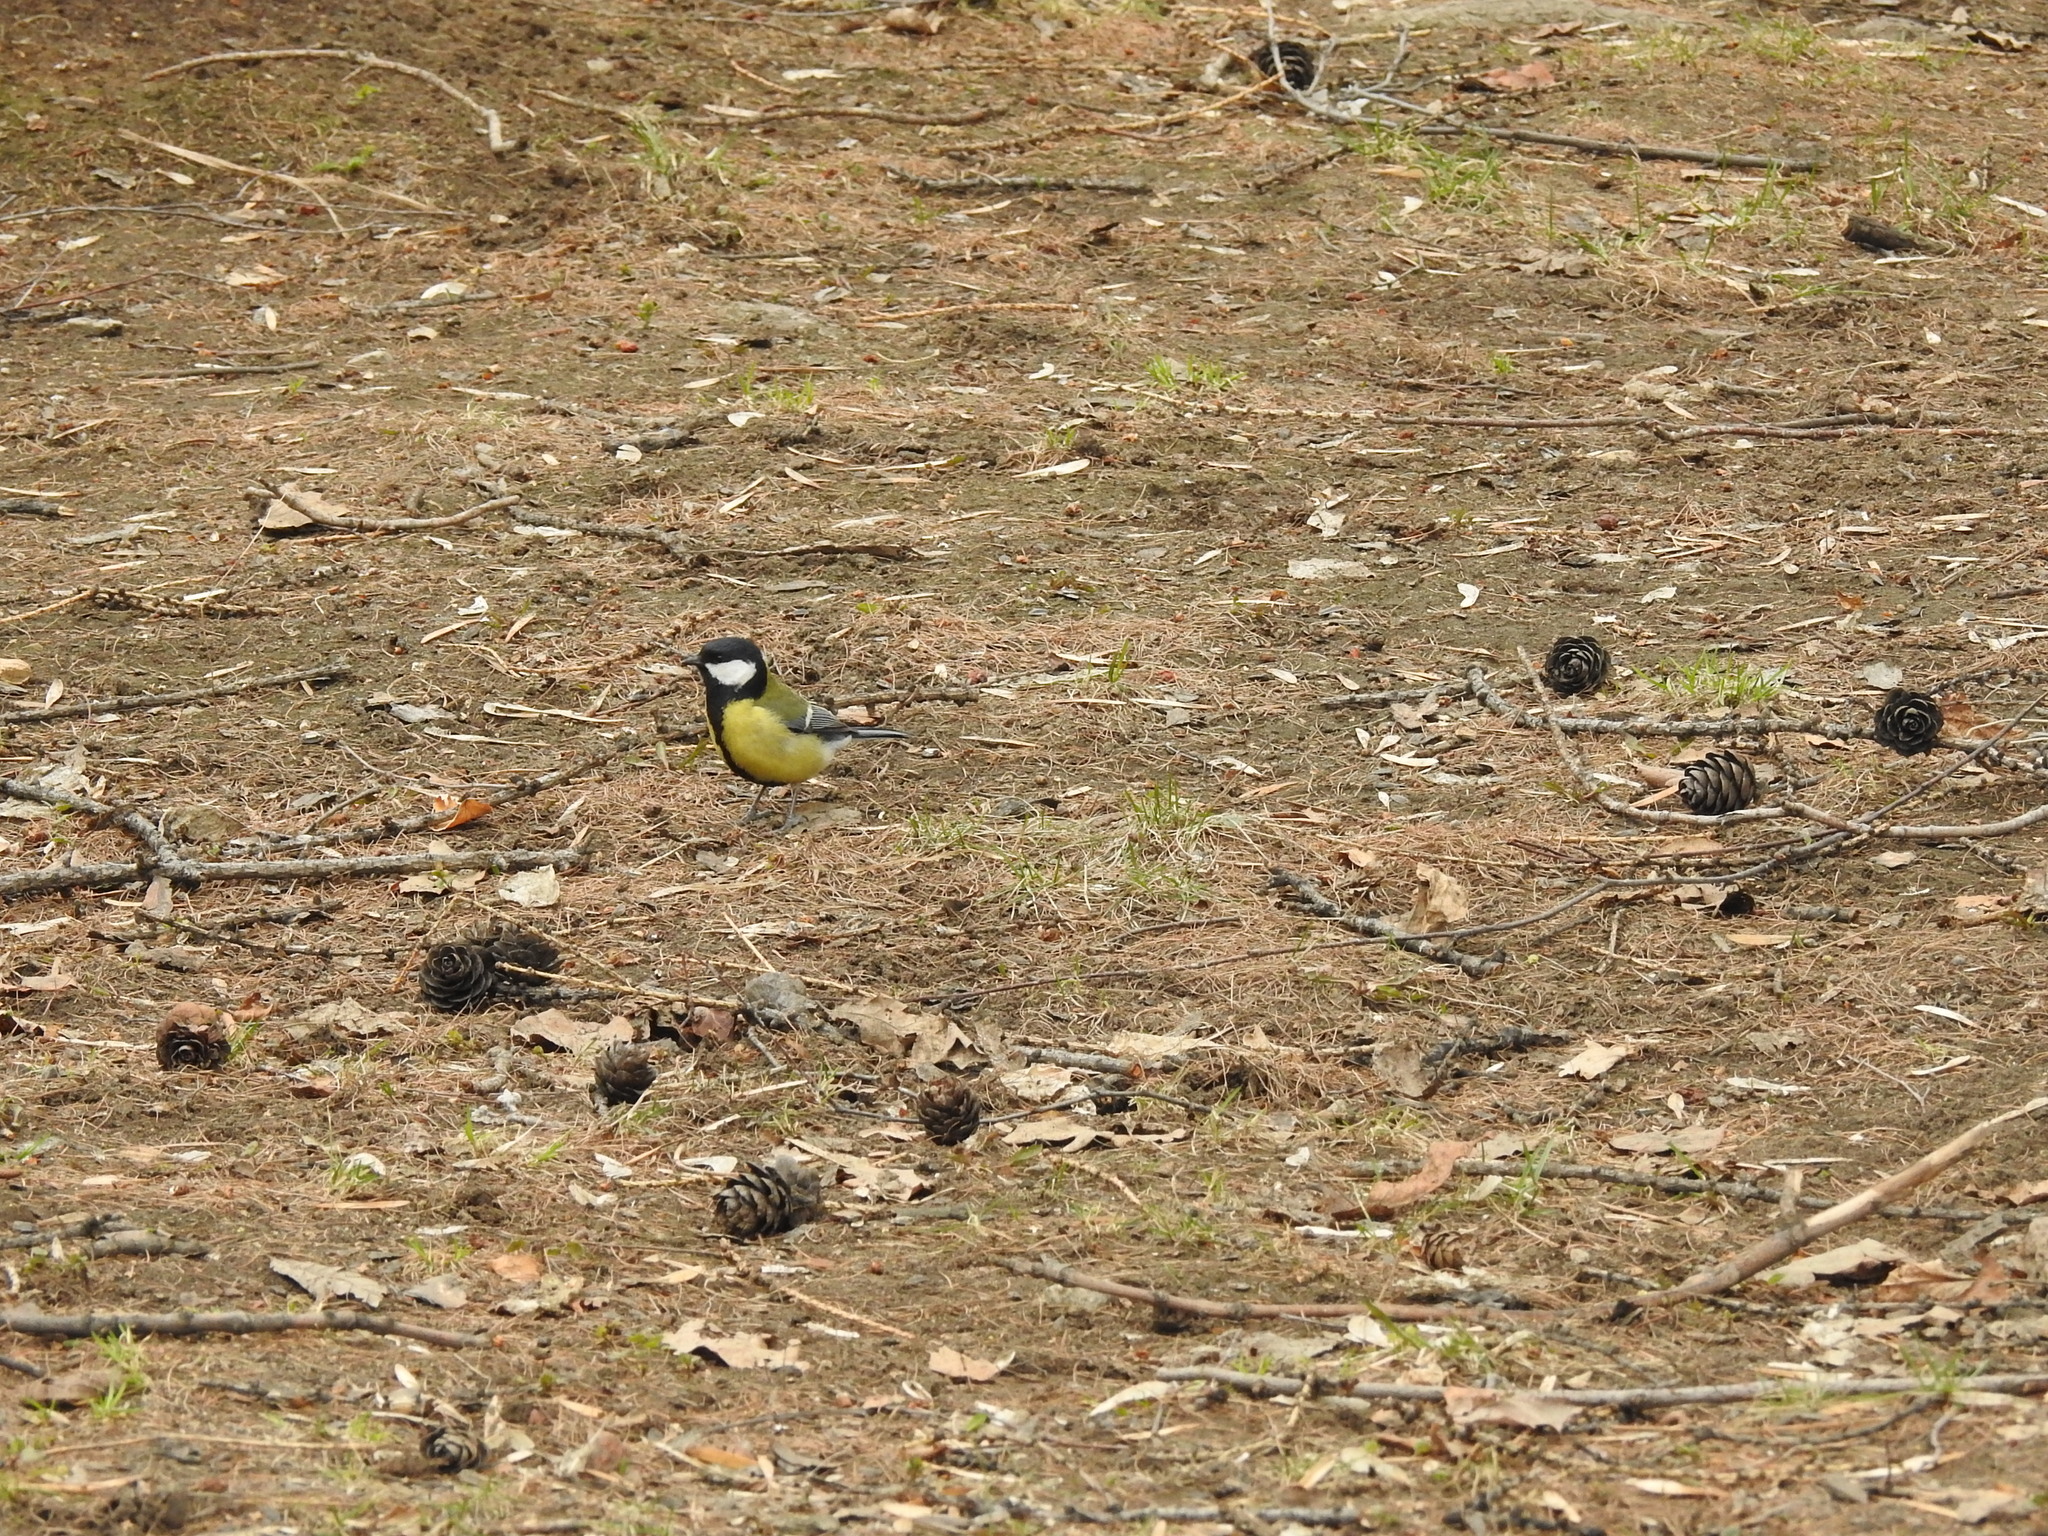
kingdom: Animalia
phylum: Chordata
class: Aves
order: Passeriformes
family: Paridae
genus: Parus
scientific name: Parus major
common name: Great tit
